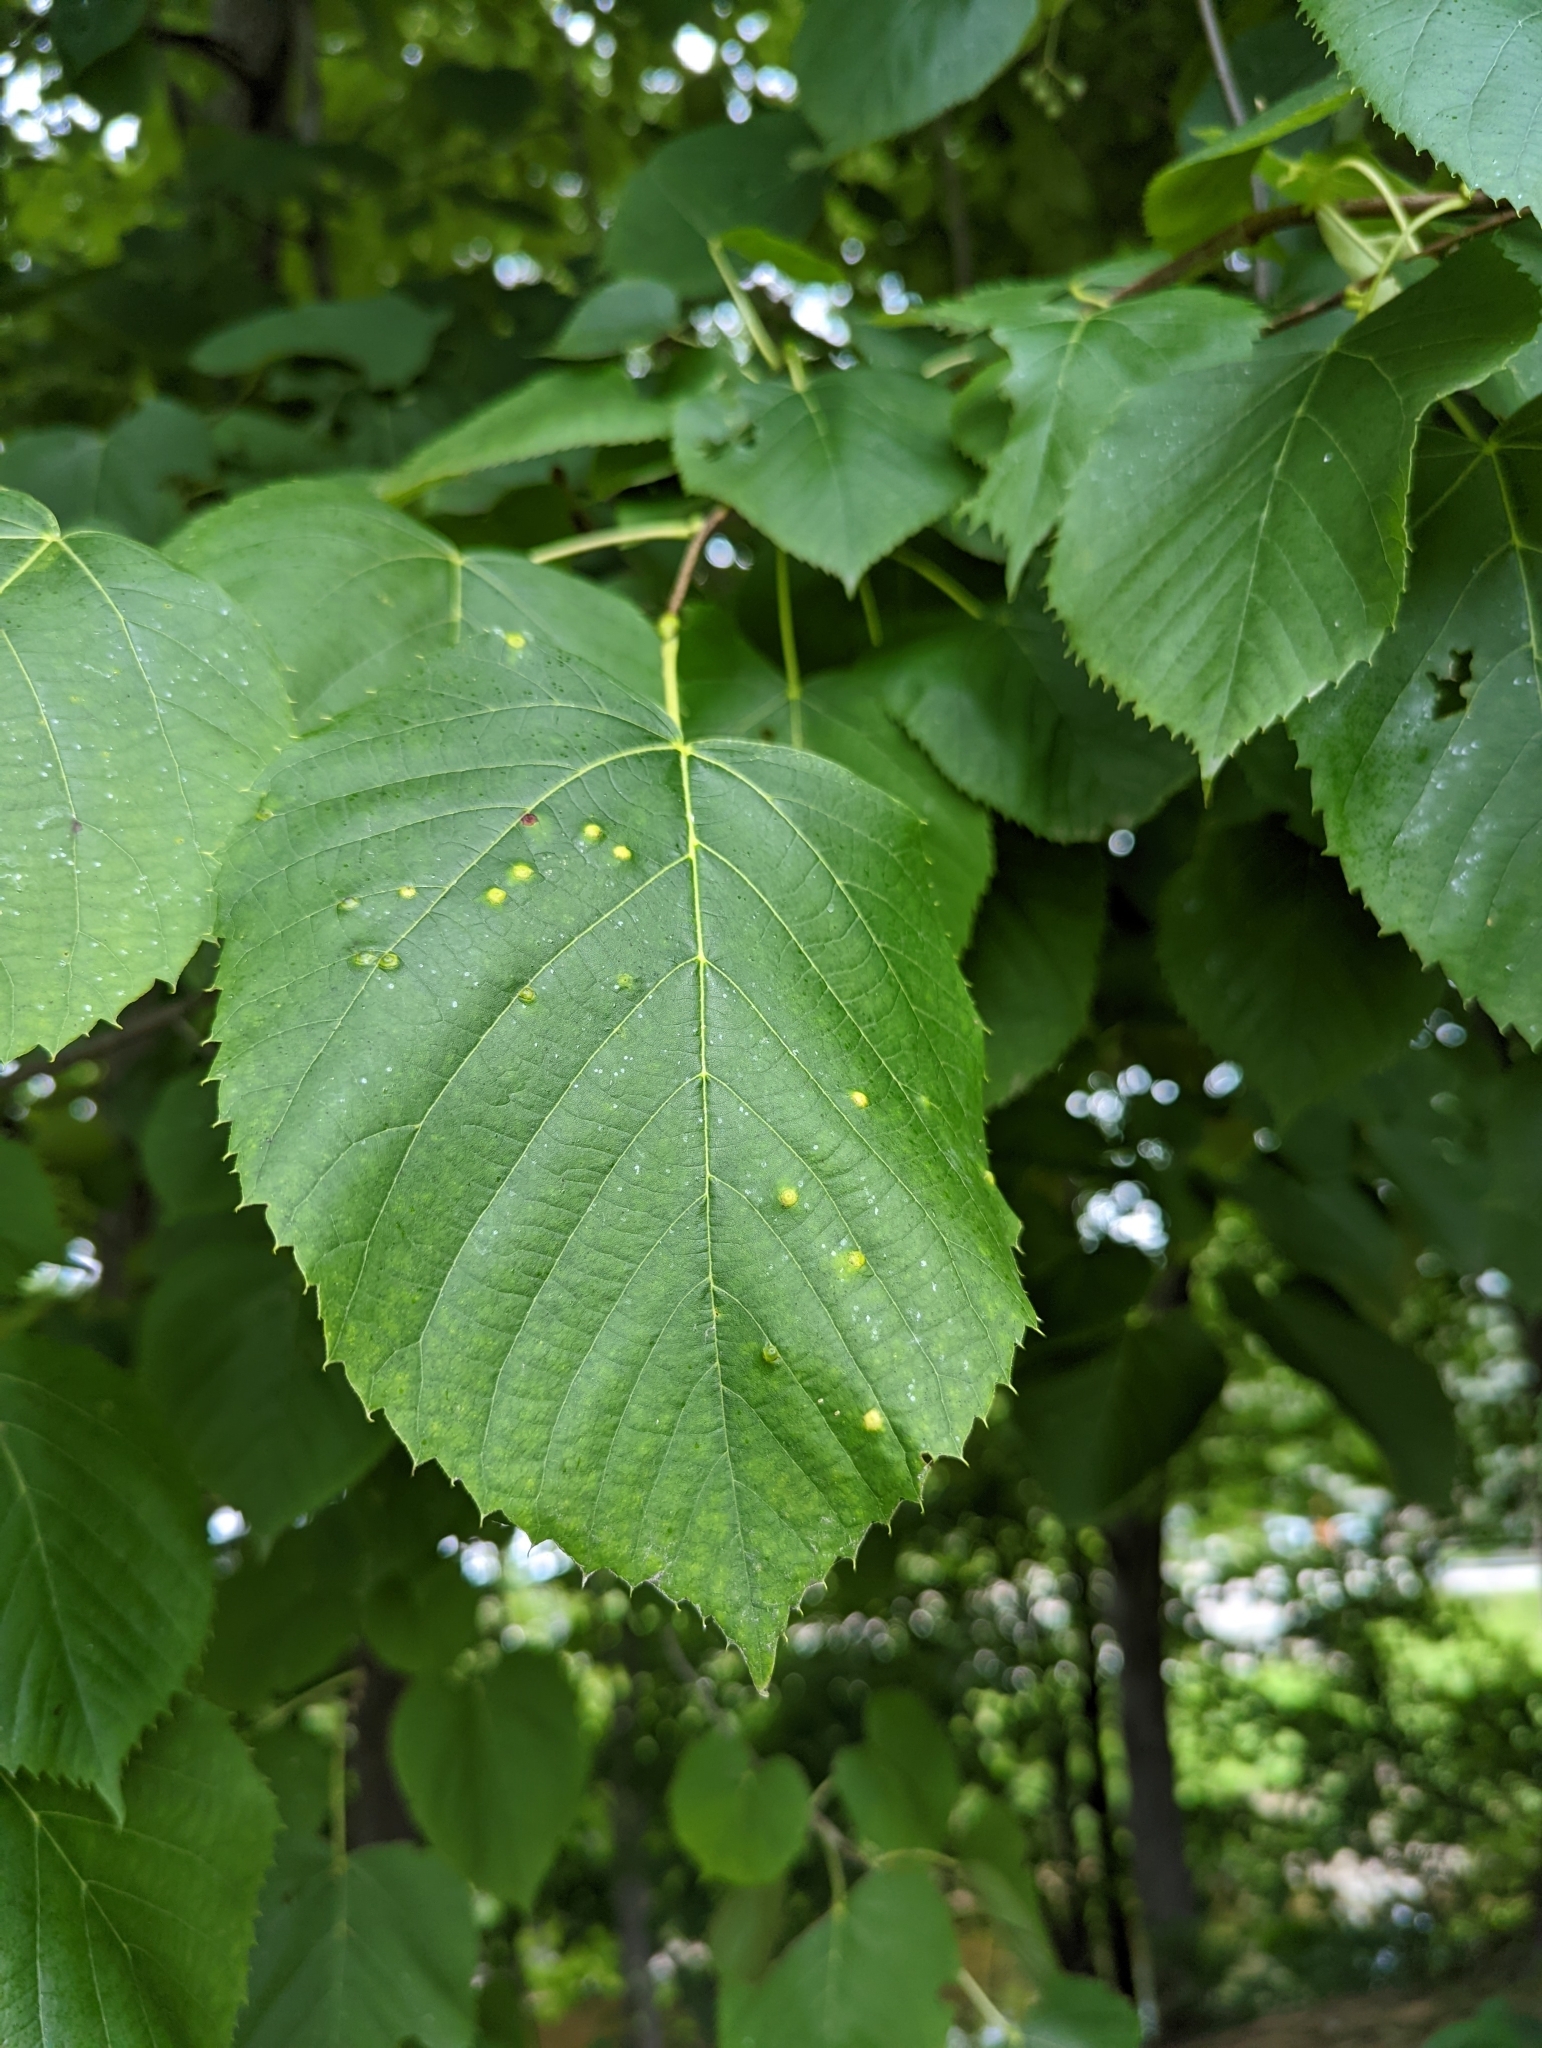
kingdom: Animalia
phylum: Arthropoda
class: Insecta
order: Diptera
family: Cecidomyiidae
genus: Contarinia
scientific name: Contarinia verrucicola
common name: Linden wart gall midge
